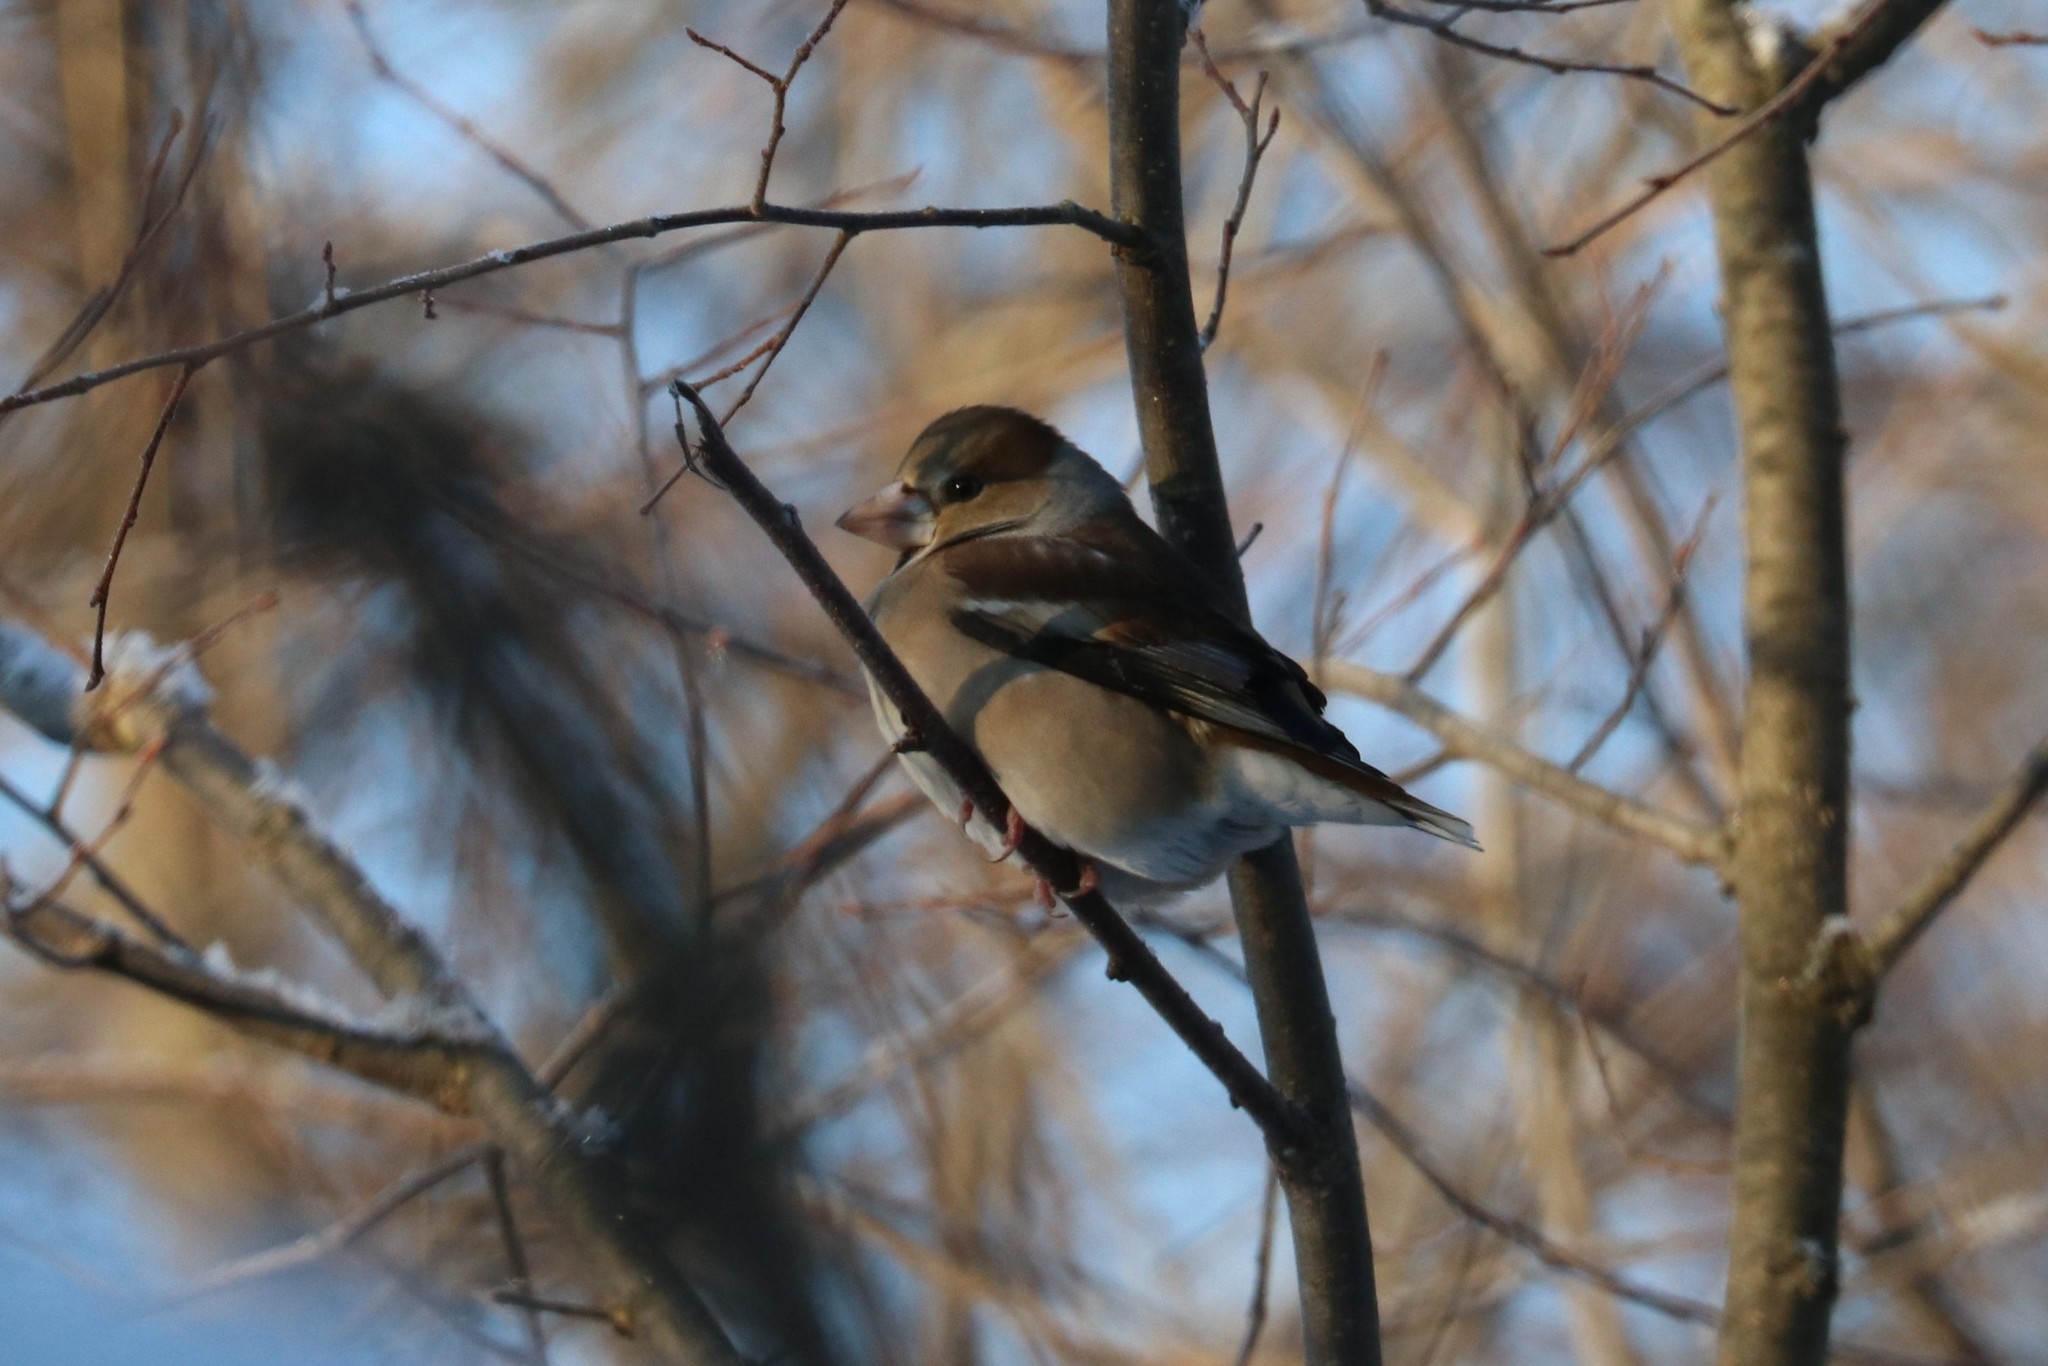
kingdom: Animalia
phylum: Chordata
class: Aves
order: Passeriformes
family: Fringillidae
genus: Coccothraustes
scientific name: Coccothraustes coccothraustes
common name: Hawfinch
